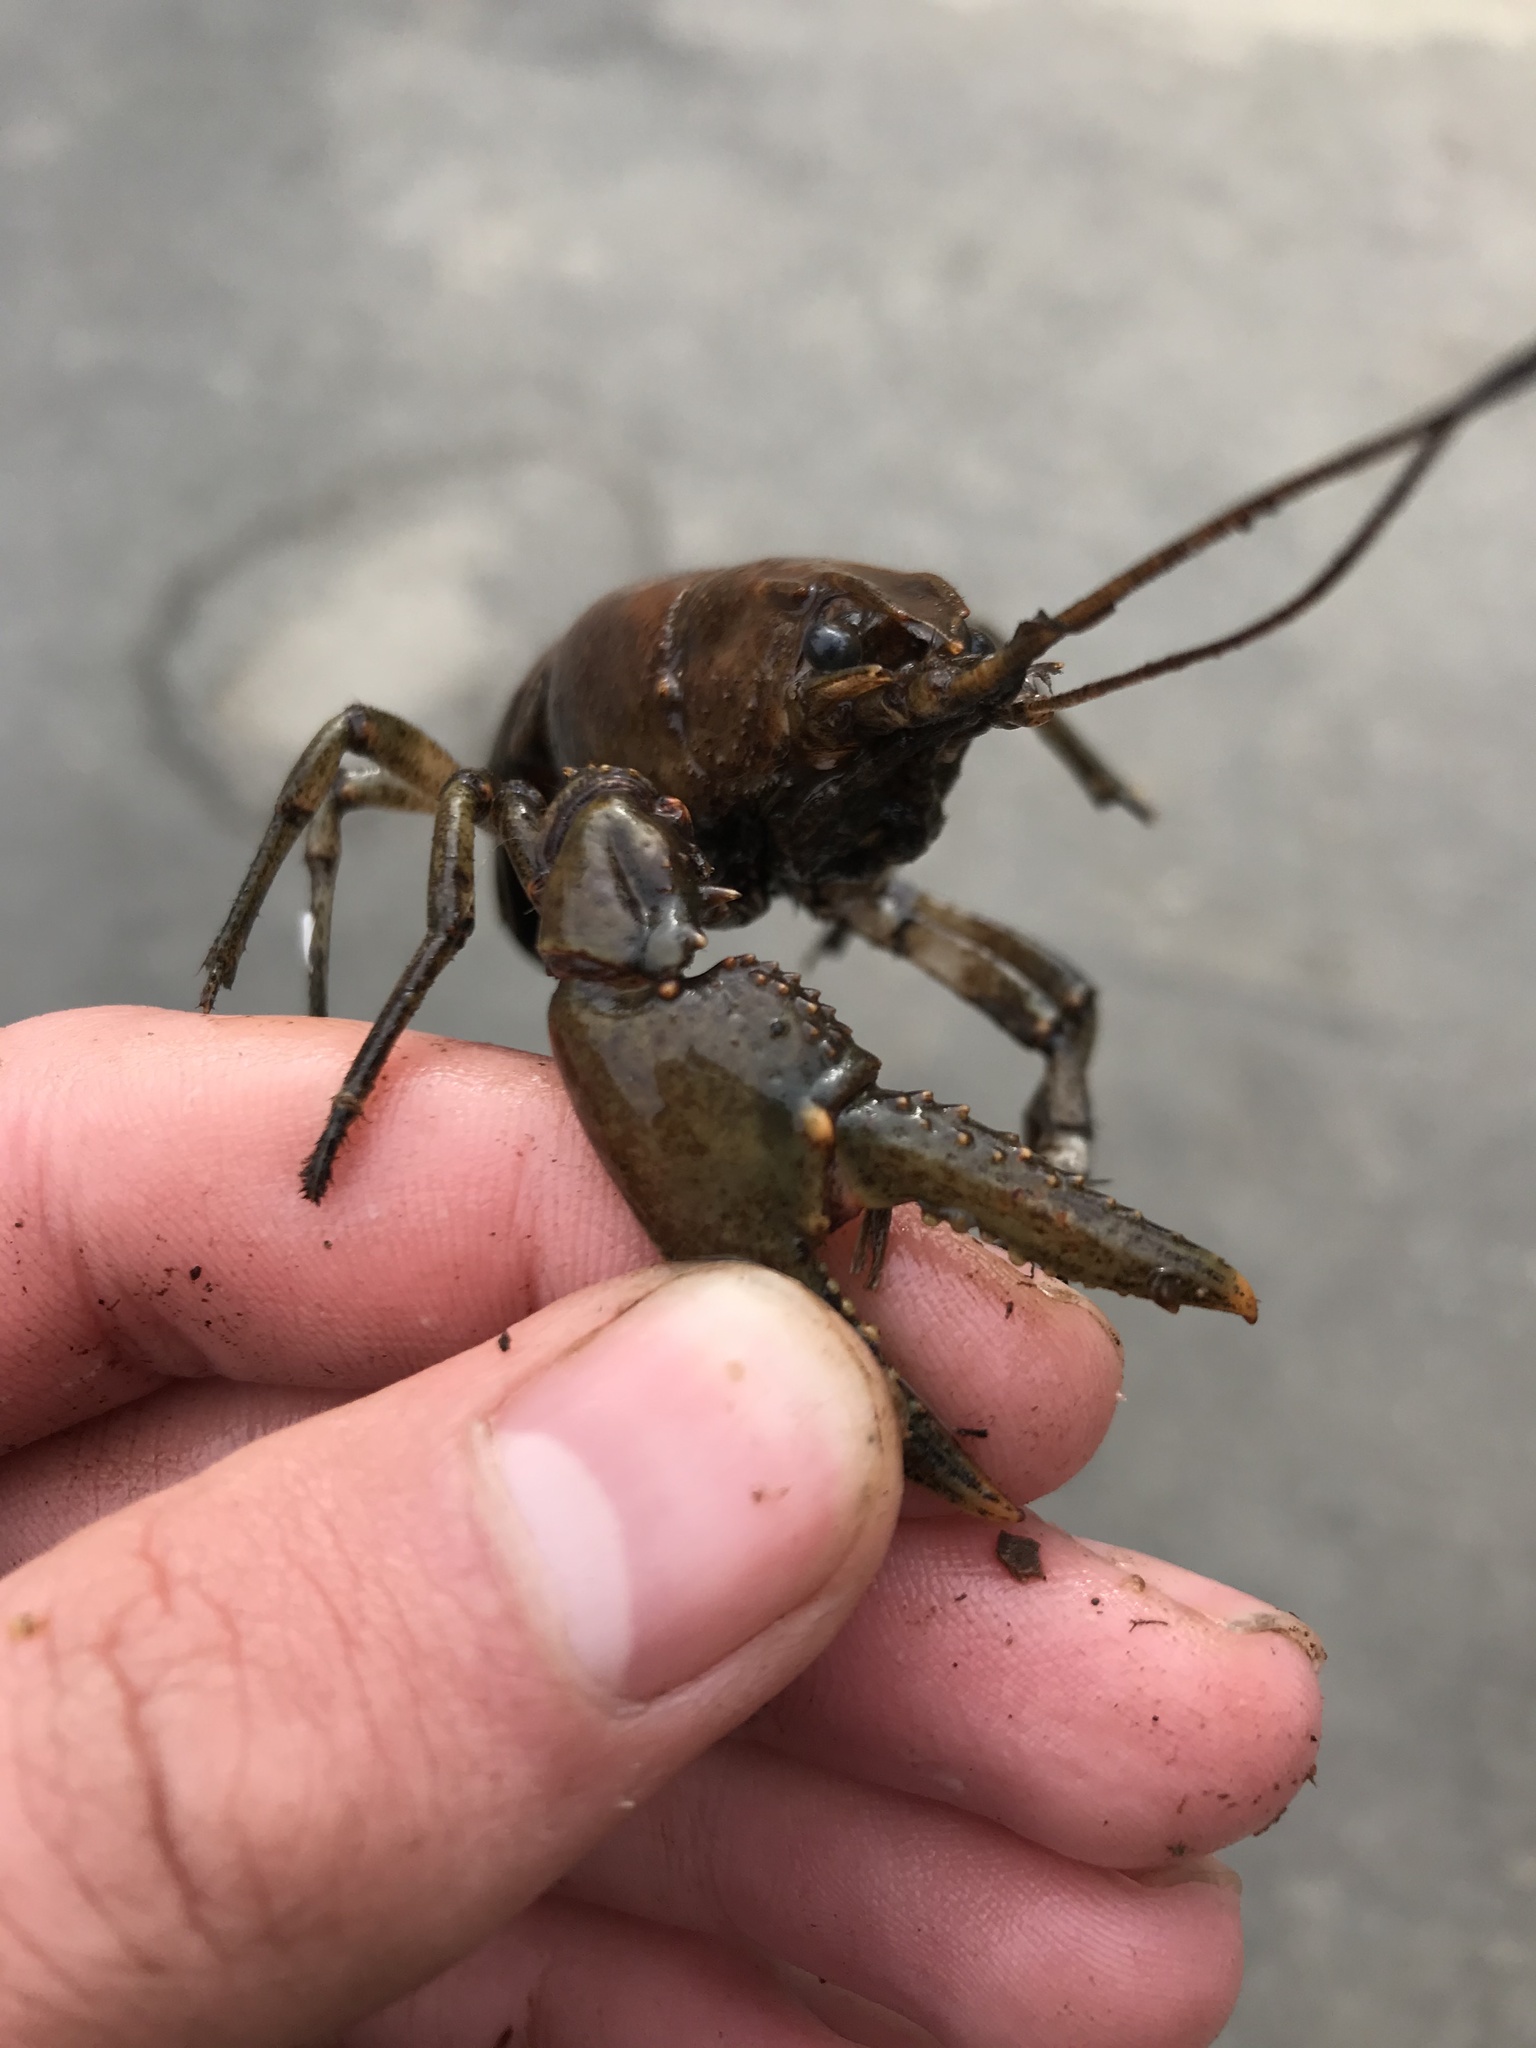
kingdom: Animalia
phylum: Arthropoda
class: Malacostraca
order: Decapoda
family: Cambaridae
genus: Faxonius
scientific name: Faxonius virilis
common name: Virile crayfish
